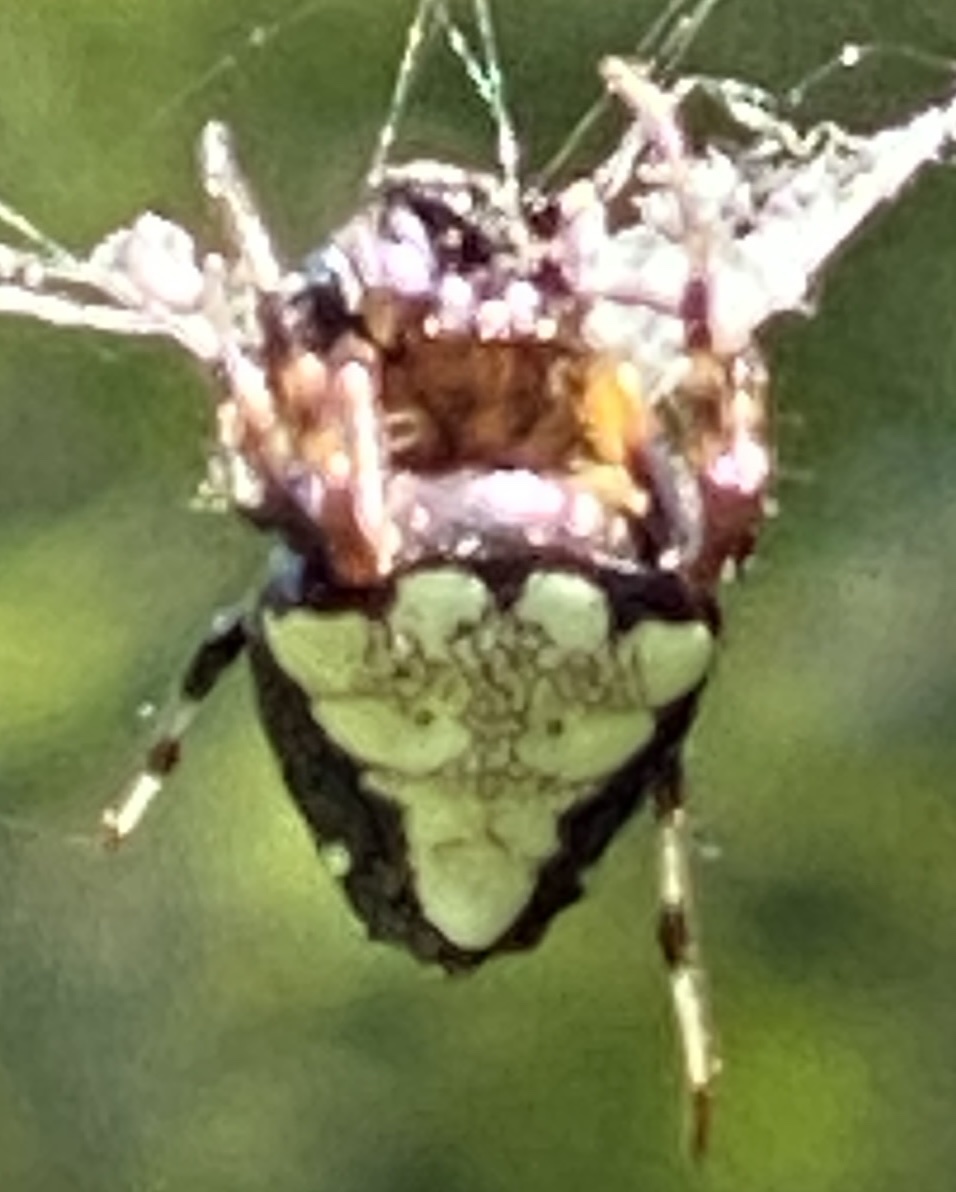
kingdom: Animalia
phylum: Arthropoda
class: Arachnida
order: Araneae
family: Araneidae
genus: Verrucosa
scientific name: Verrucosa arenata
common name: Orb weavers
